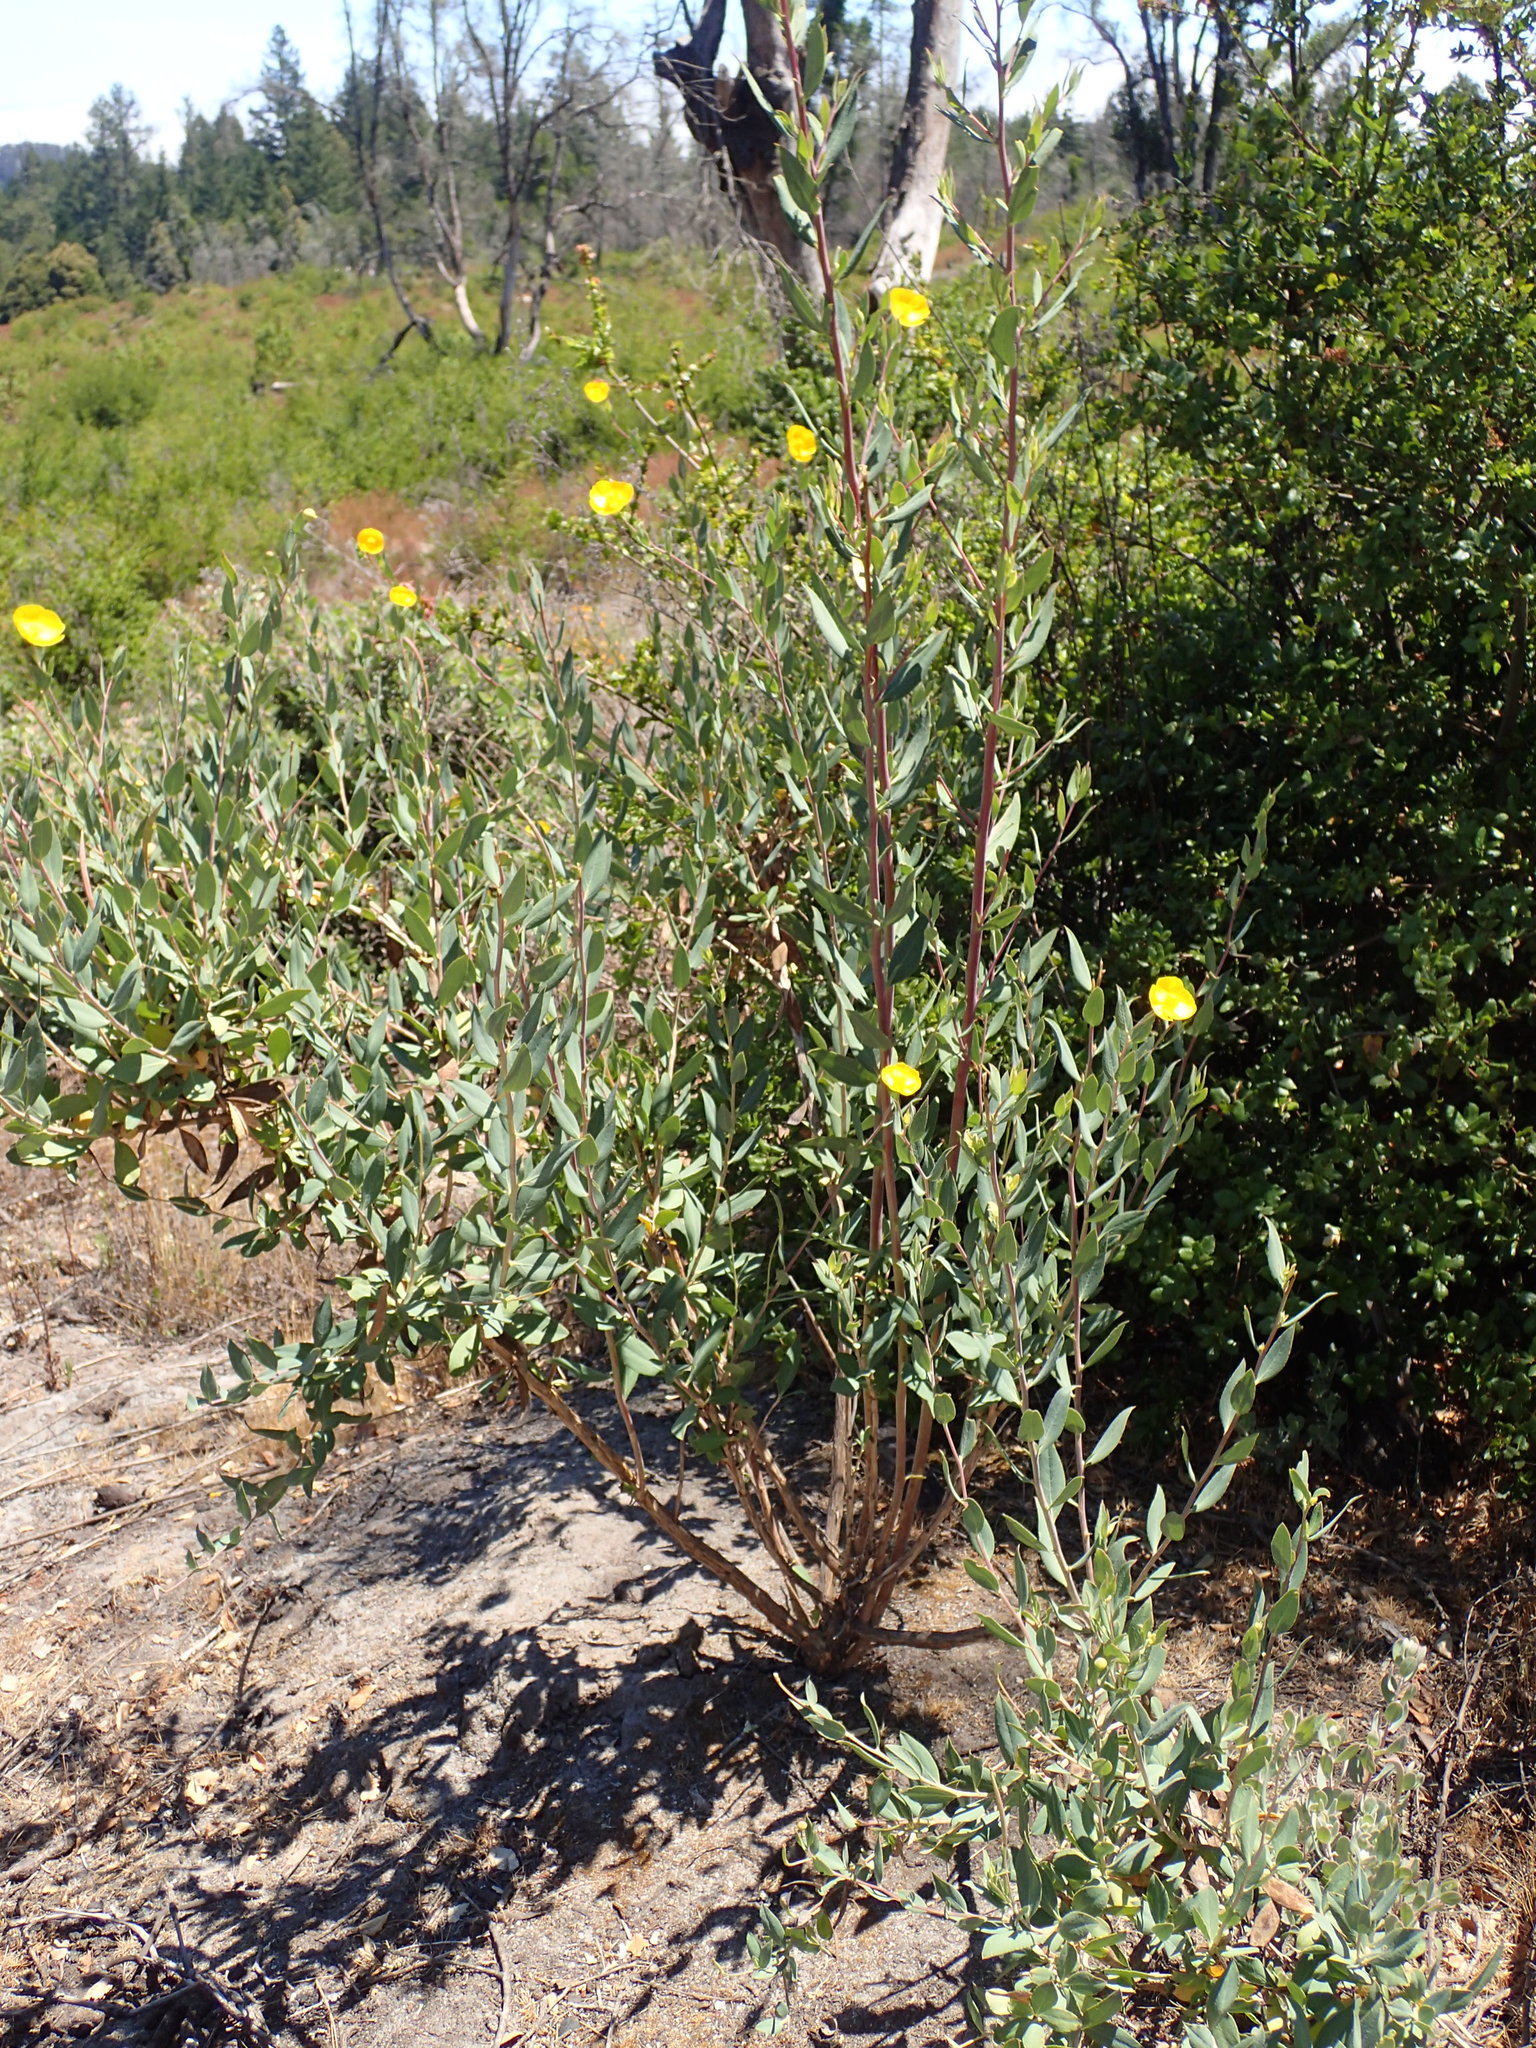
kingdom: Plantae
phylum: Tracheophyta
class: Magnoliopsida
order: Ranunculales
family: Papaveraceae
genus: Dendromecon
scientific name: Dendromecon rigida
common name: Tree poppy
